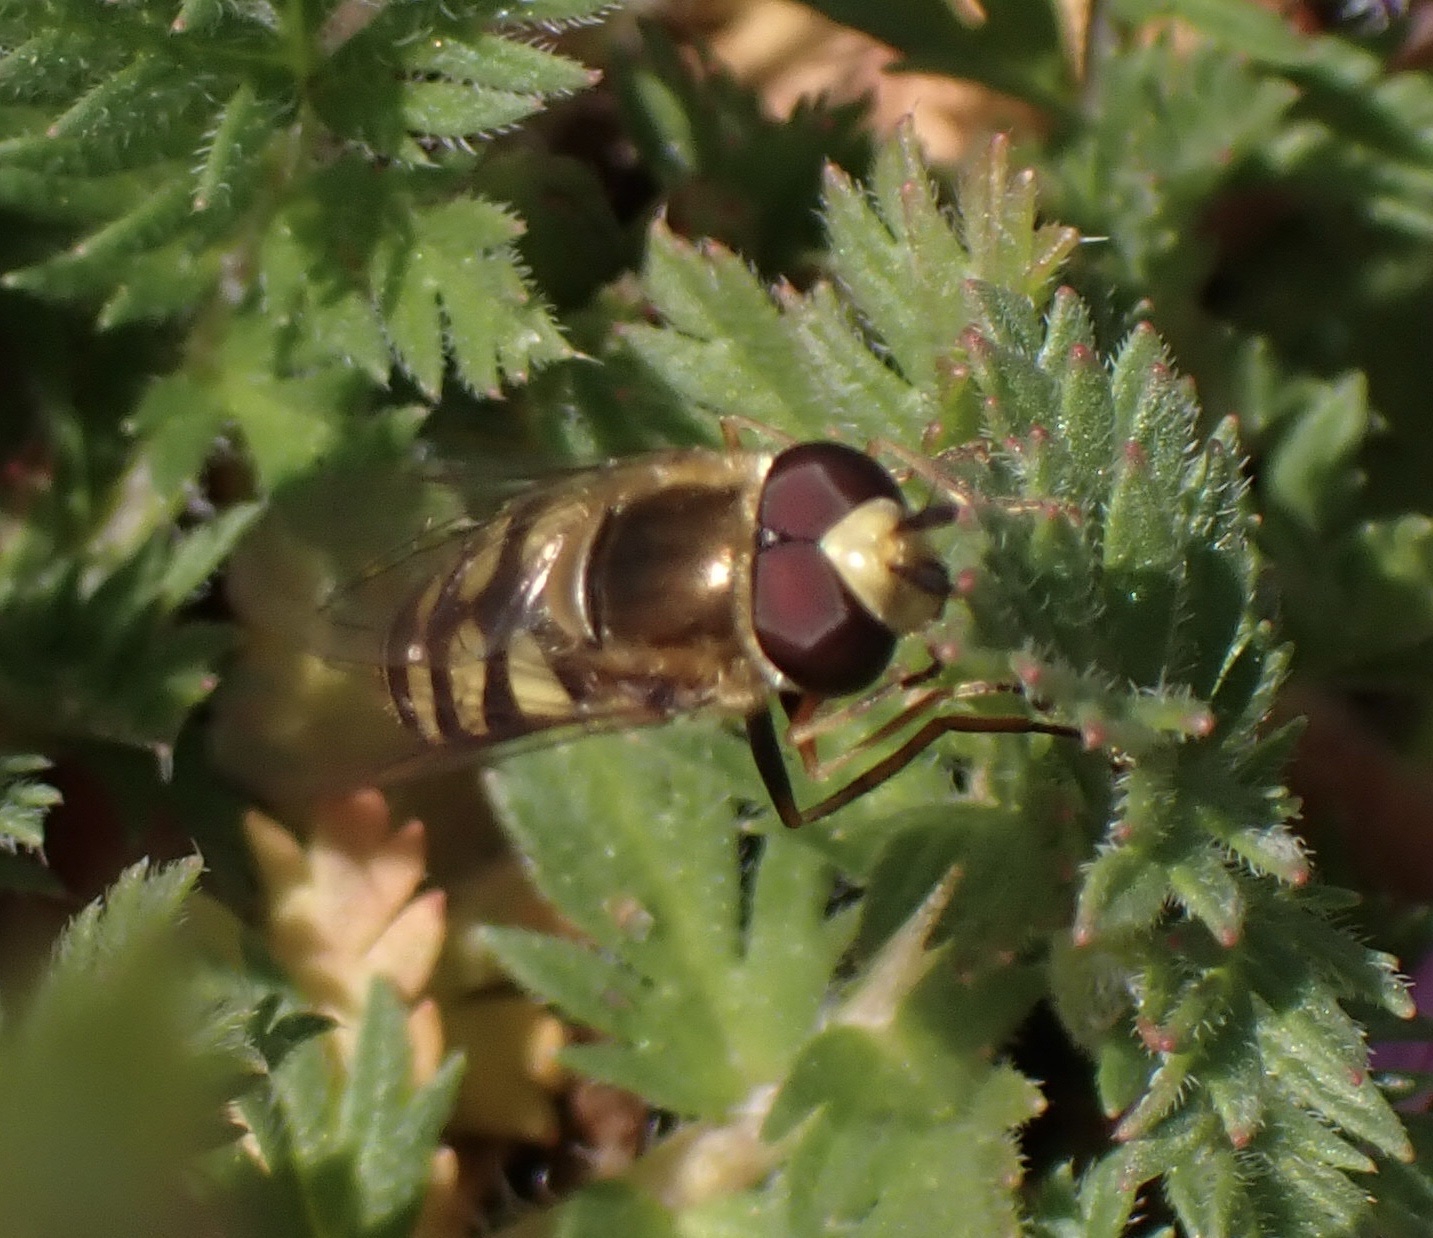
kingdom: Animalia
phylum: Arthropoda
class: Insecta
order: Diptera
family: Syrphidae
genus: Eupeodes
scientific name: Eupeodes
